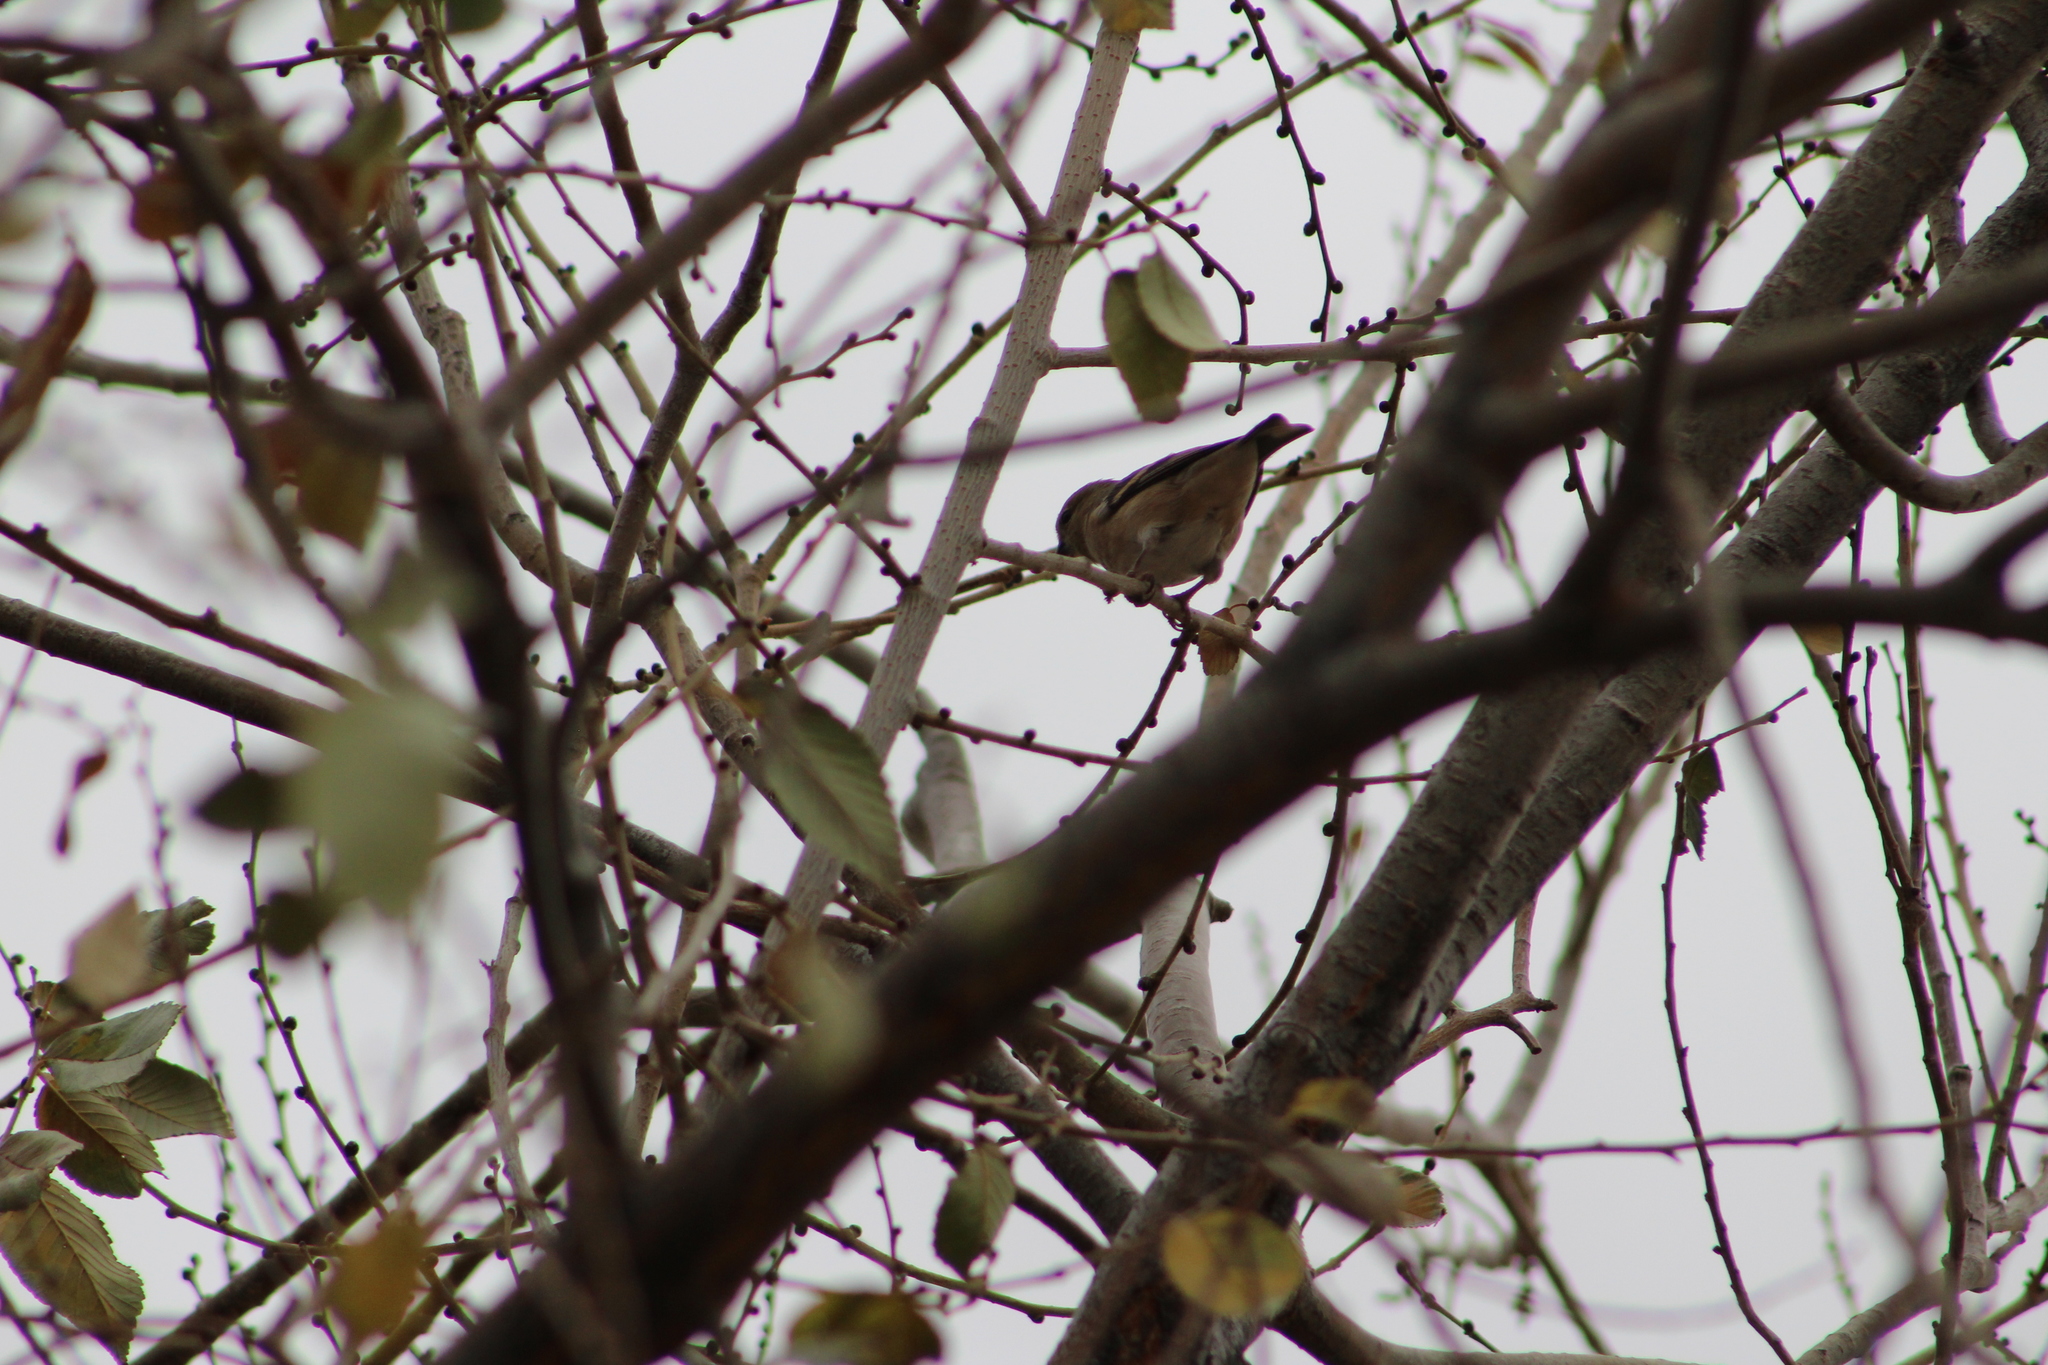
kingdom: Animalia
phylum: Chordata
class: Aves
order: Passeriformes
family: Fringillidae
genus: Spinus
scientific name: Spinus tristis
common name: American goldfinch
